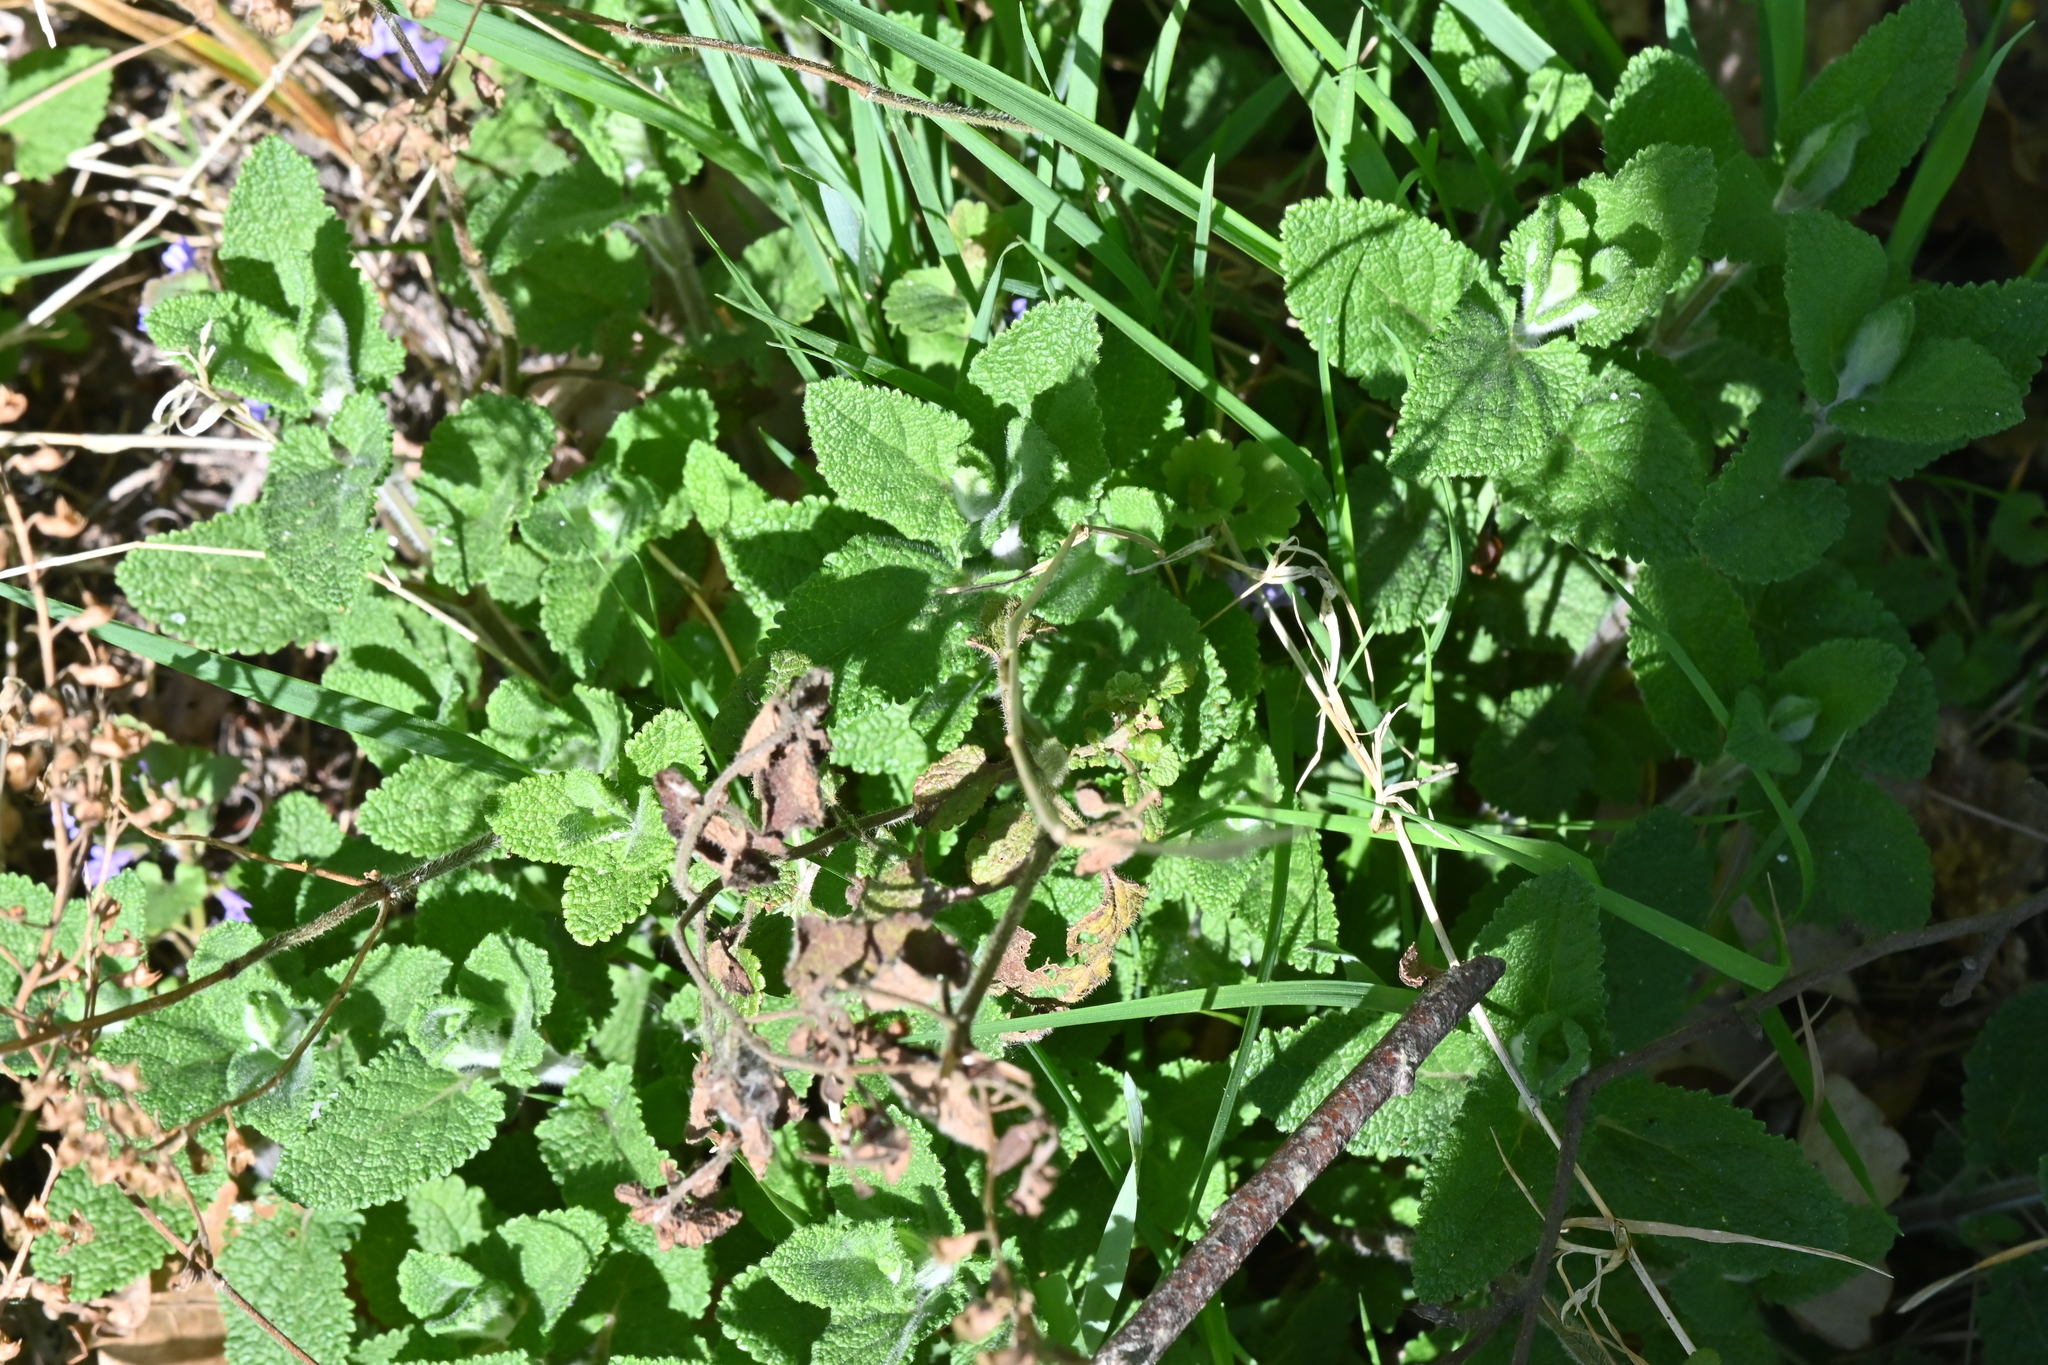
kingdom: Plantae
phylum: Tracheophyta
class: Magnoliopsida
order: Lamiales
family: Lamiaceae
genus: Teucrium
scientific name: Teucrium scorodonia
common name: Woodland germander
